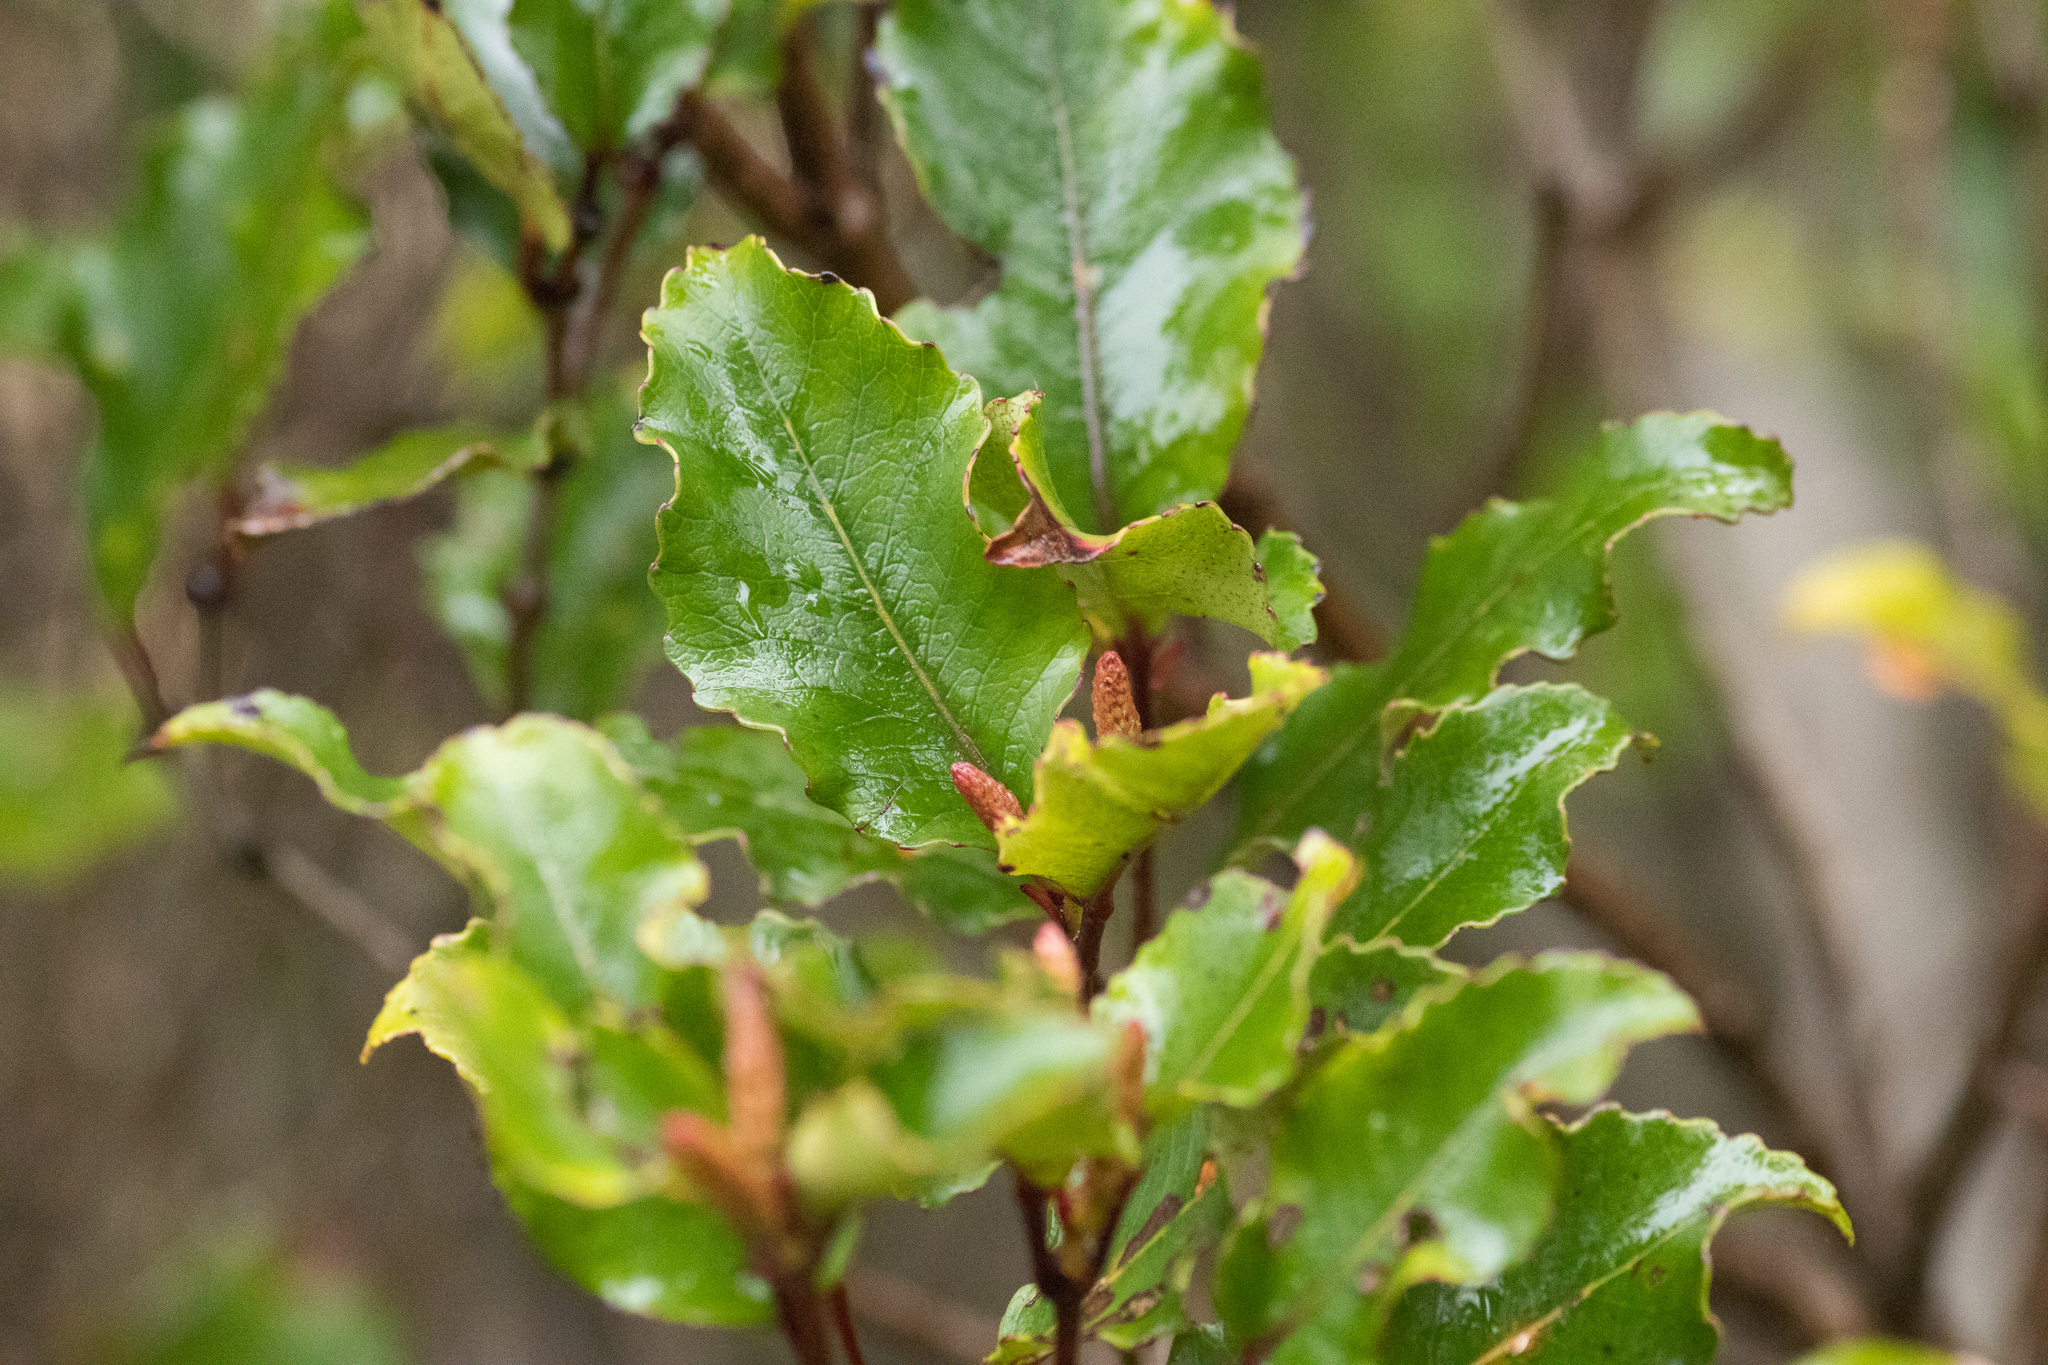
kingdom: Plantae
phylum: Tracheophyta
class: Magnoliopsida
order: Oxalidales
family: Cunoniaceae
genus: Pterophylla
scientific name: Pterophylla racemosa
